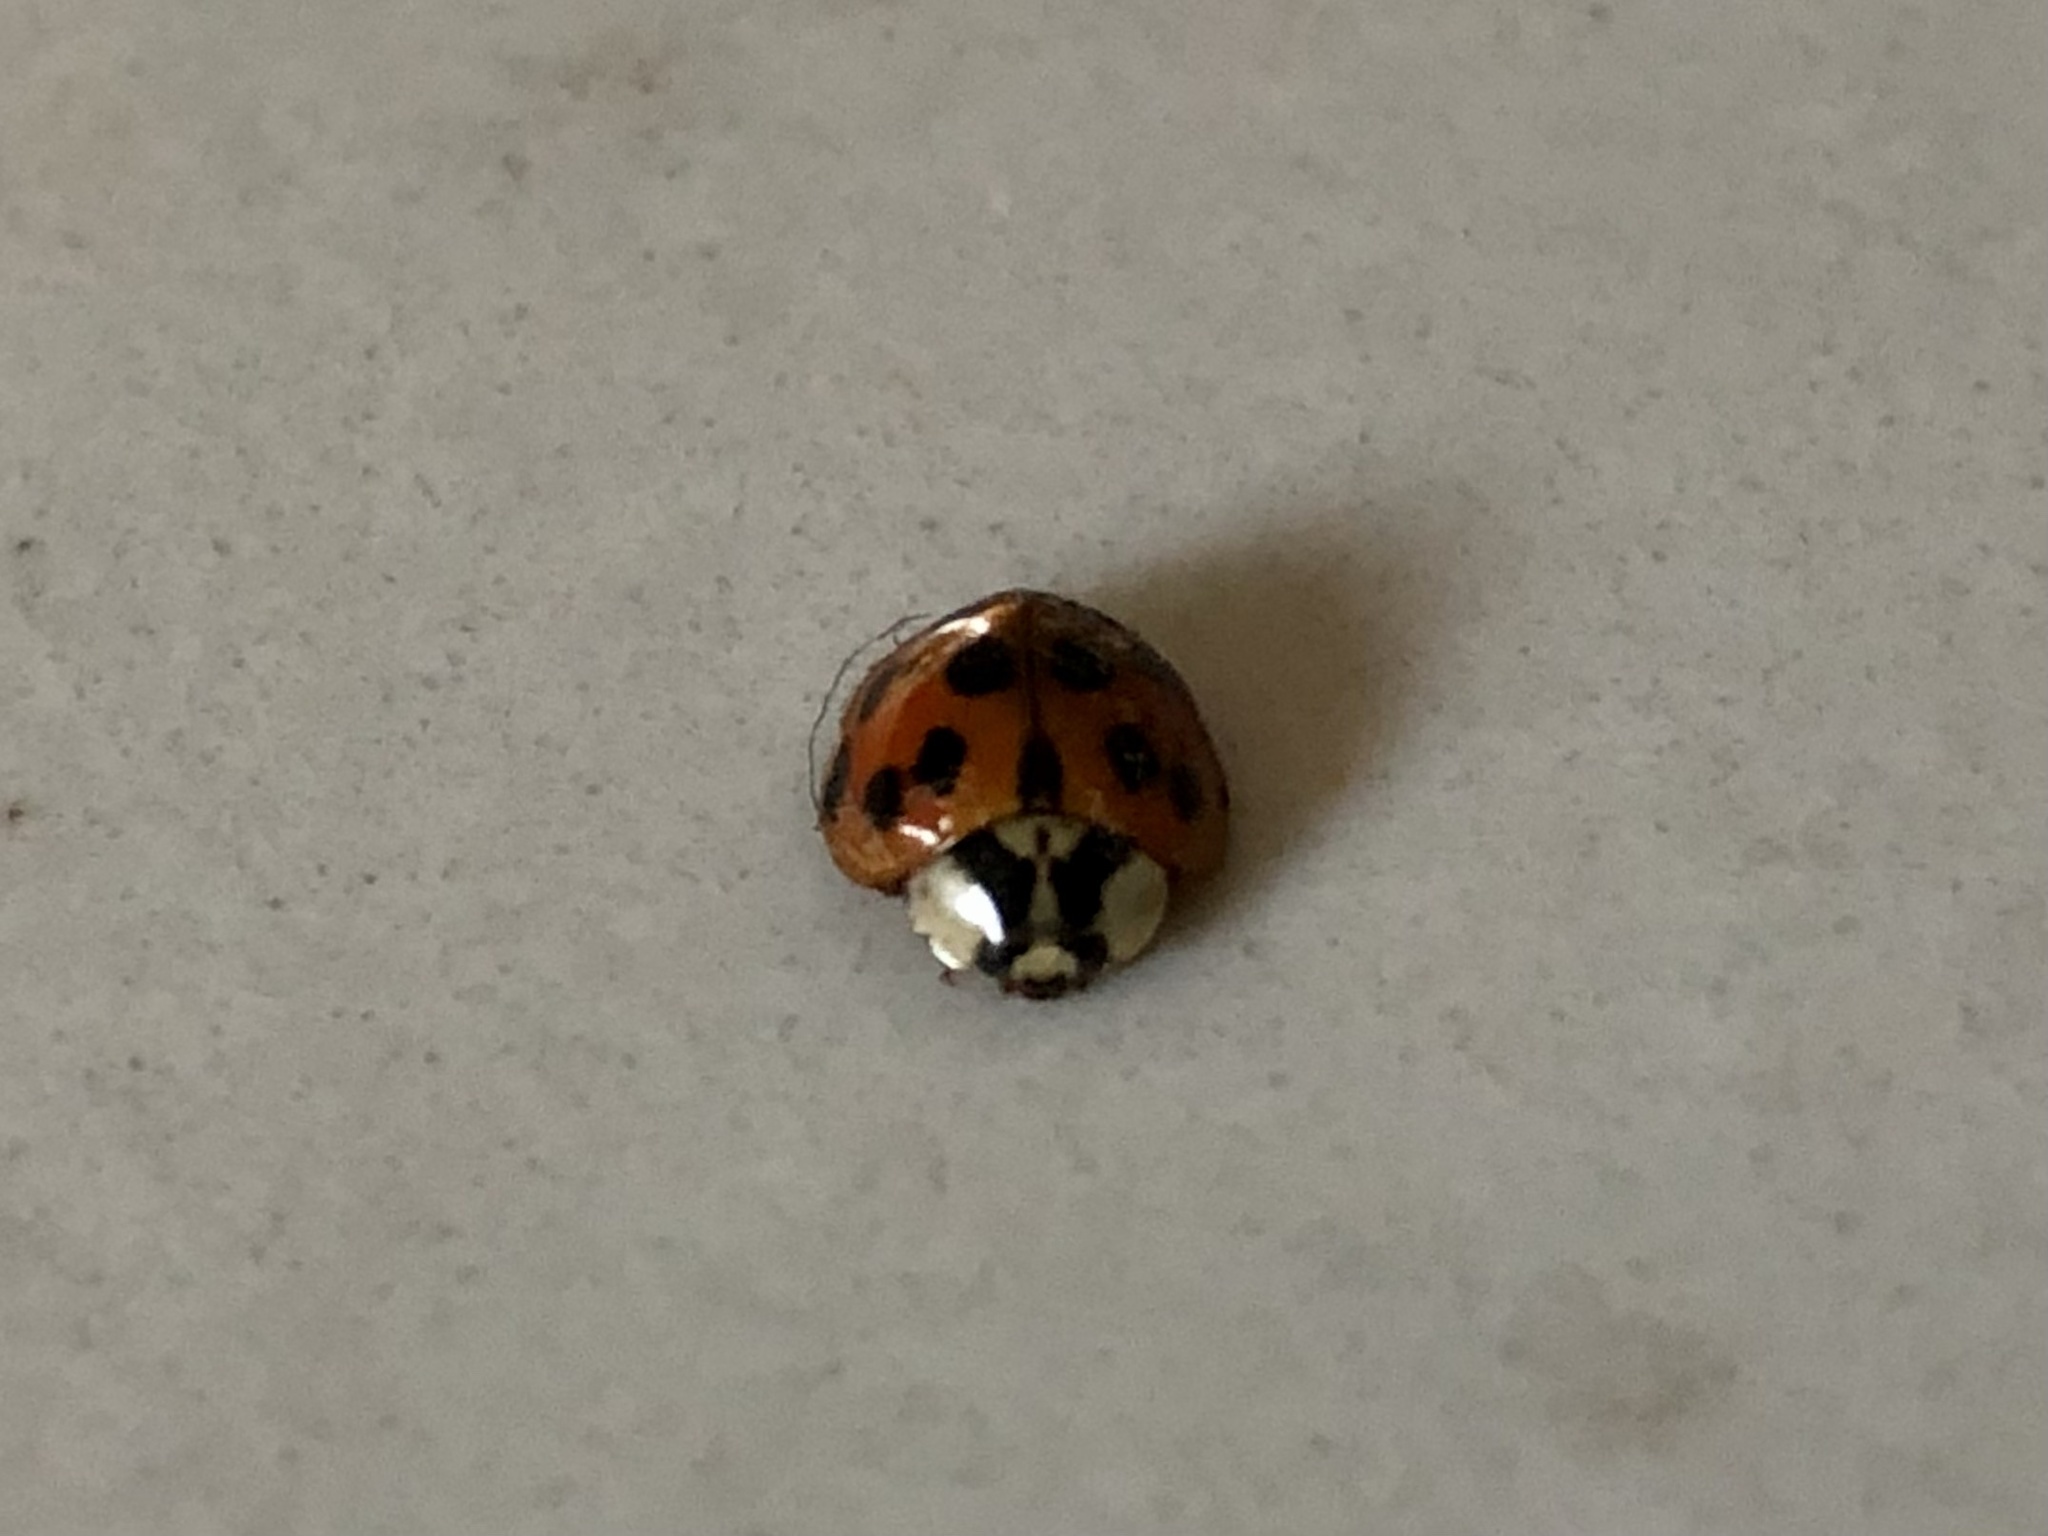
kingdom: Animalia
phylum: Arthropoda
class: Insecta
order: Coleoptera
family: Coccinellidae
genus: Harmonia
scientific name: Harmonia axyridis
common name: Harlequin ladybird
